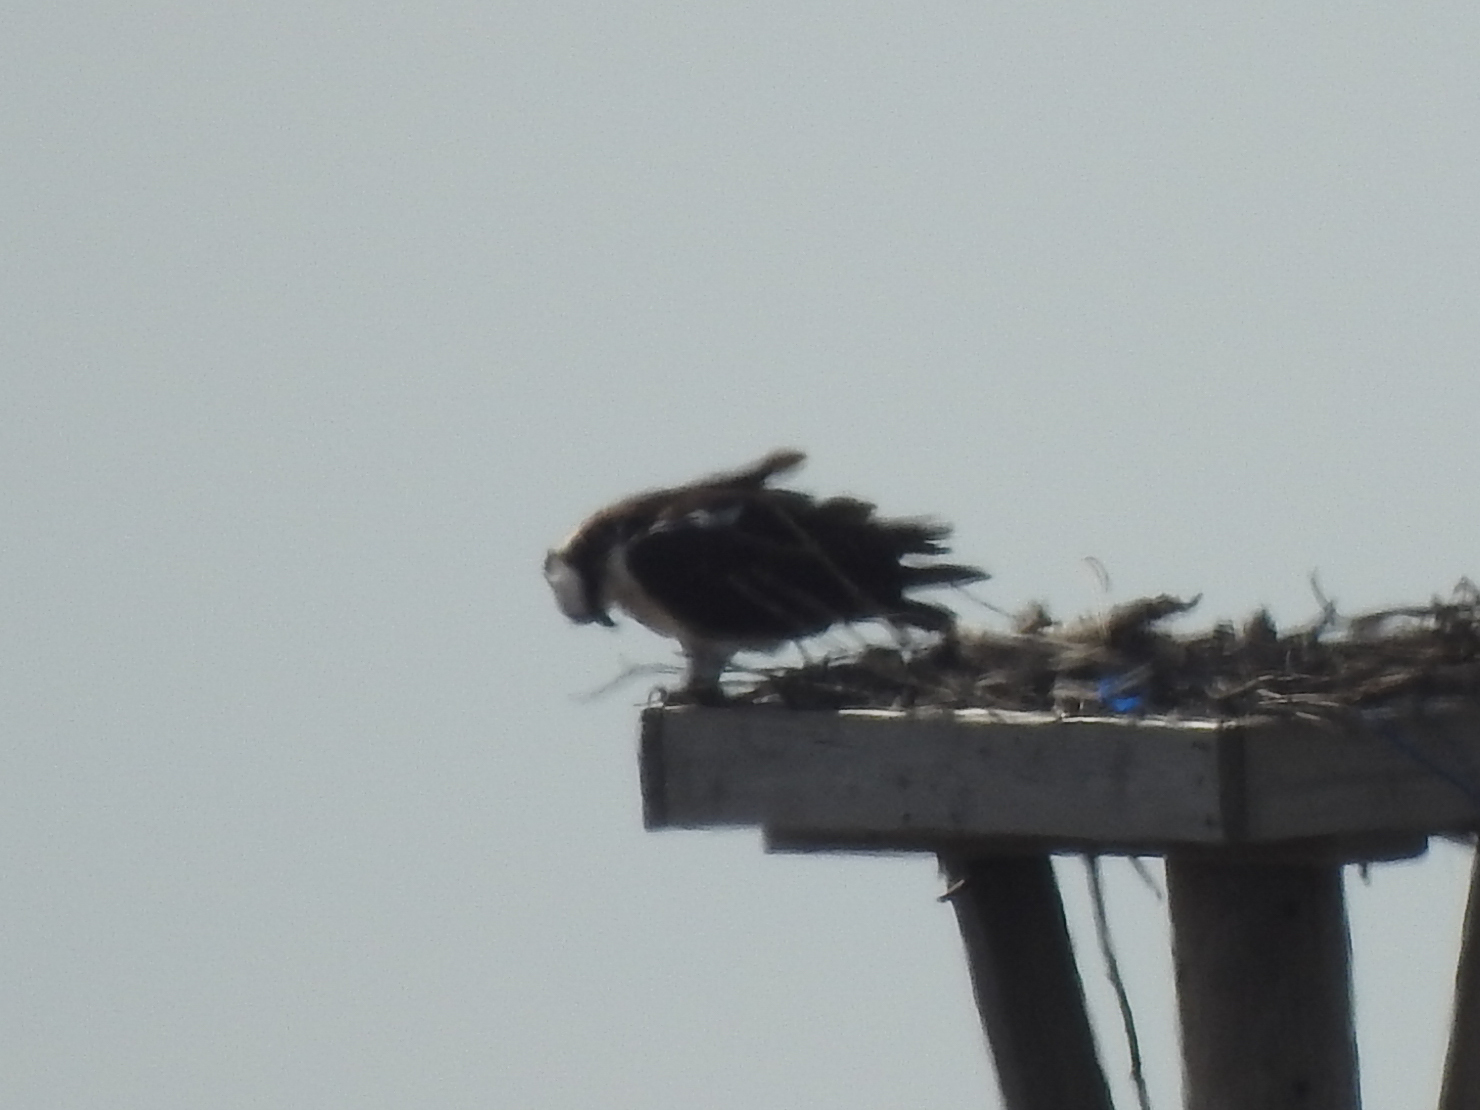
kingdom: Animalia
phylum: Chordata
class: Aves
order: Accipitriformes
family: Pandionidae
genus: Pandion
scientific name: Pandion haliaetus
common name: Osprey
